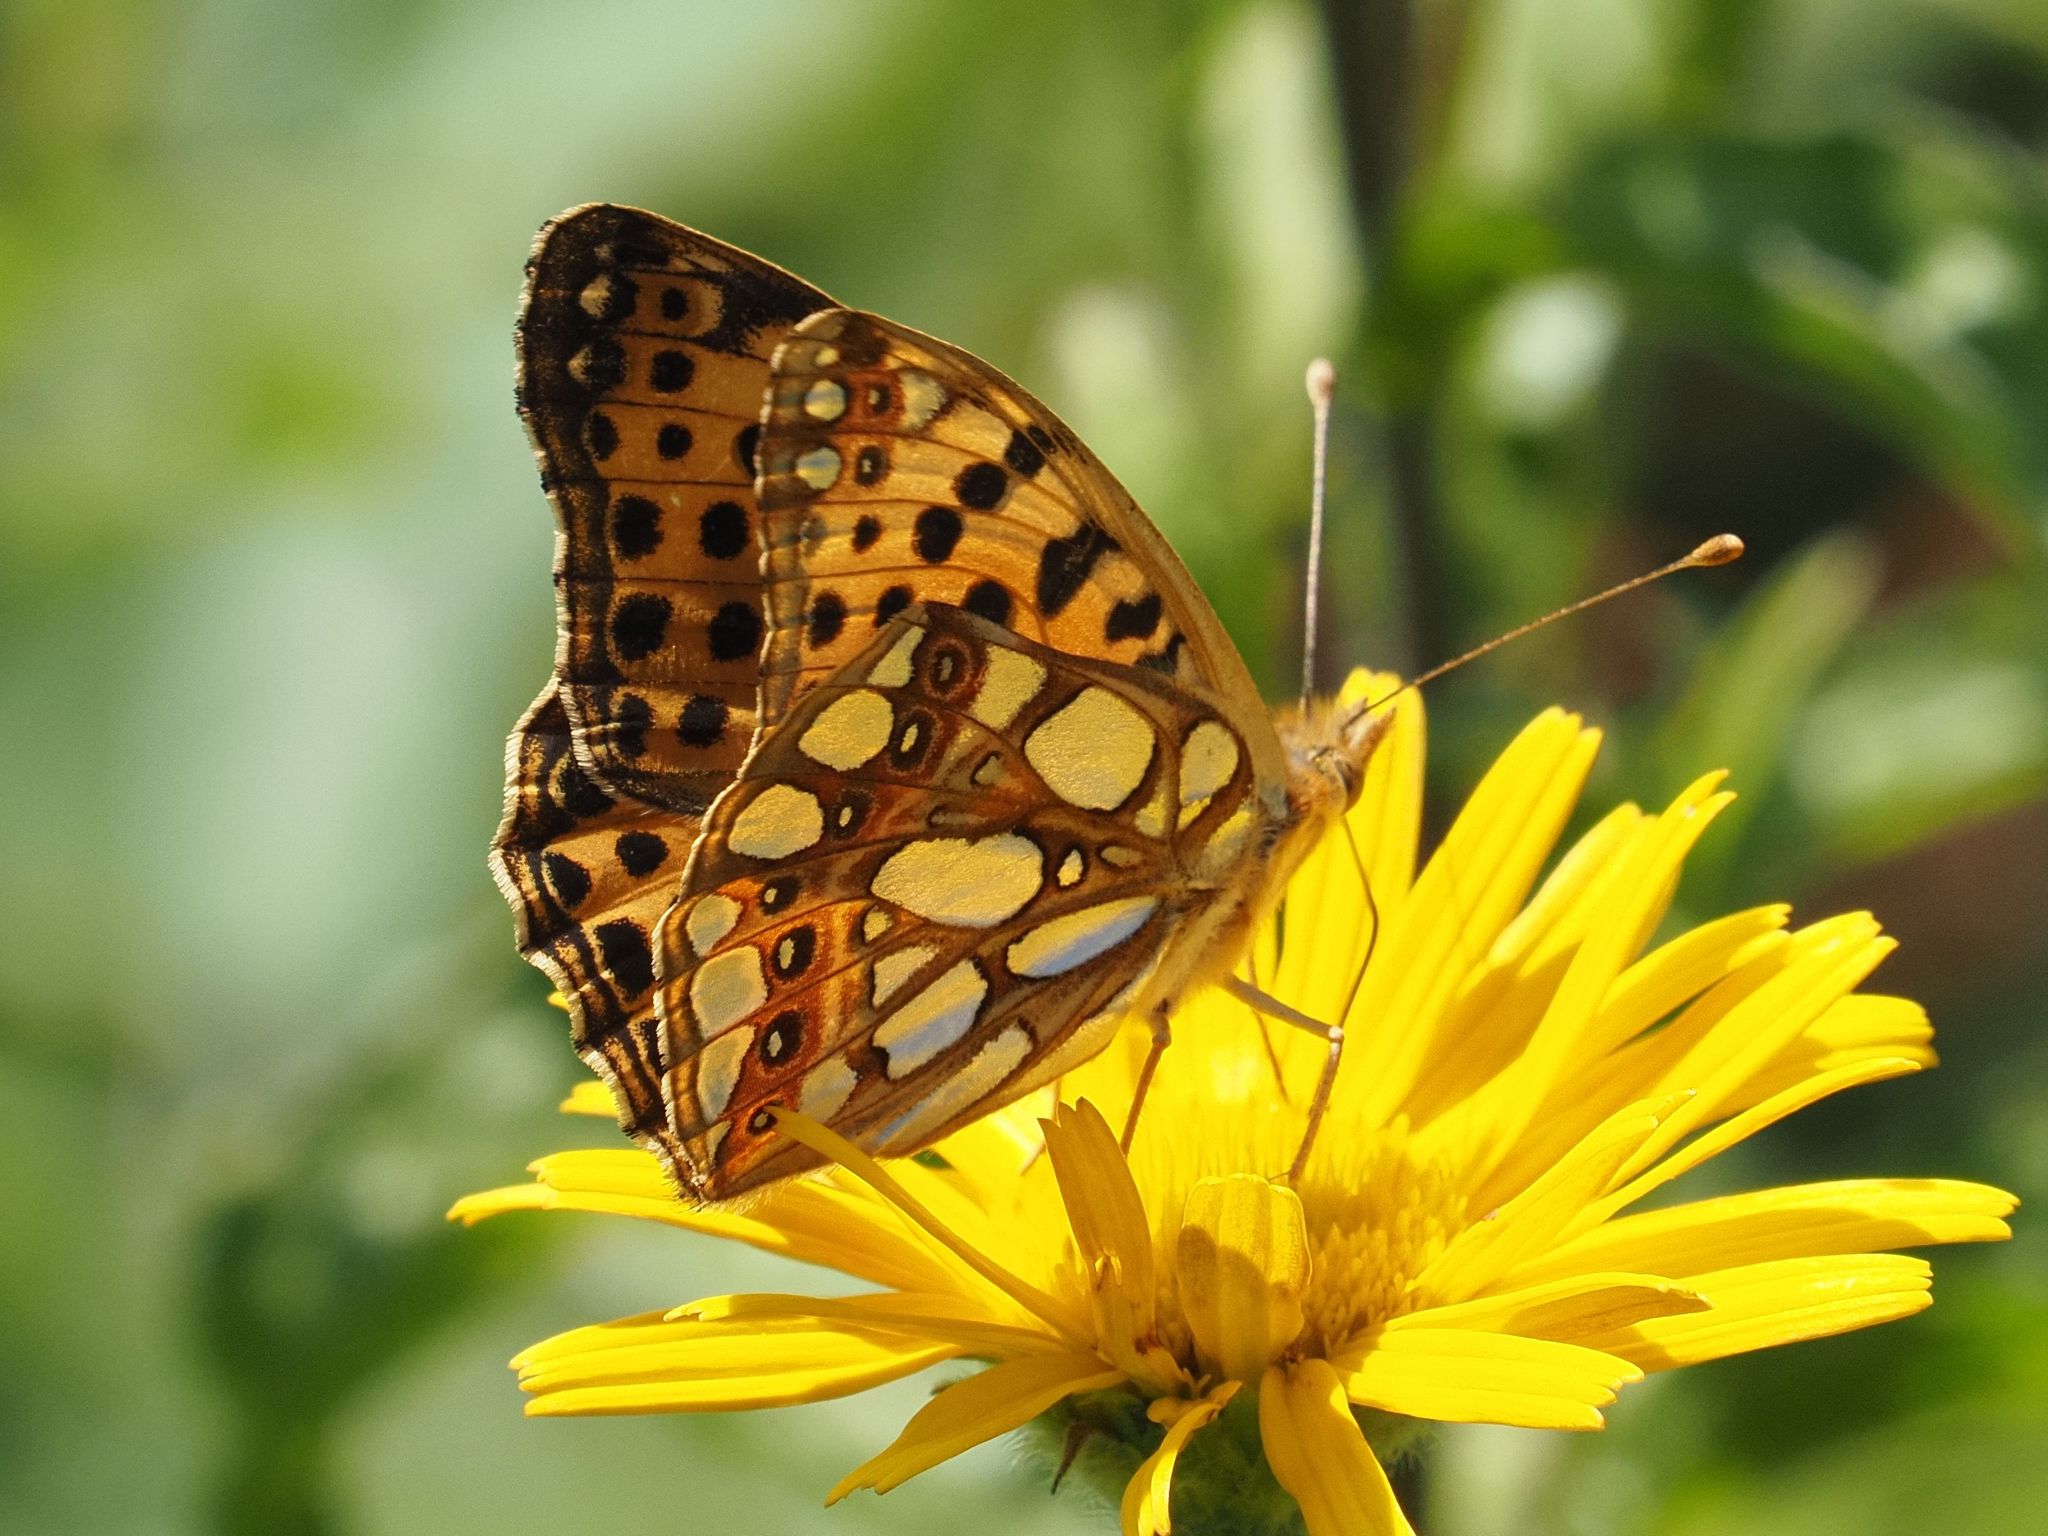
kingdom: Animalia
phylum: Arthropoda
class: Insecta
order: Lepidoptera
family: Nymphalidae
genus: Issoria
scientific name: Issoria lathonia
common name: Queen of spain fritillary
